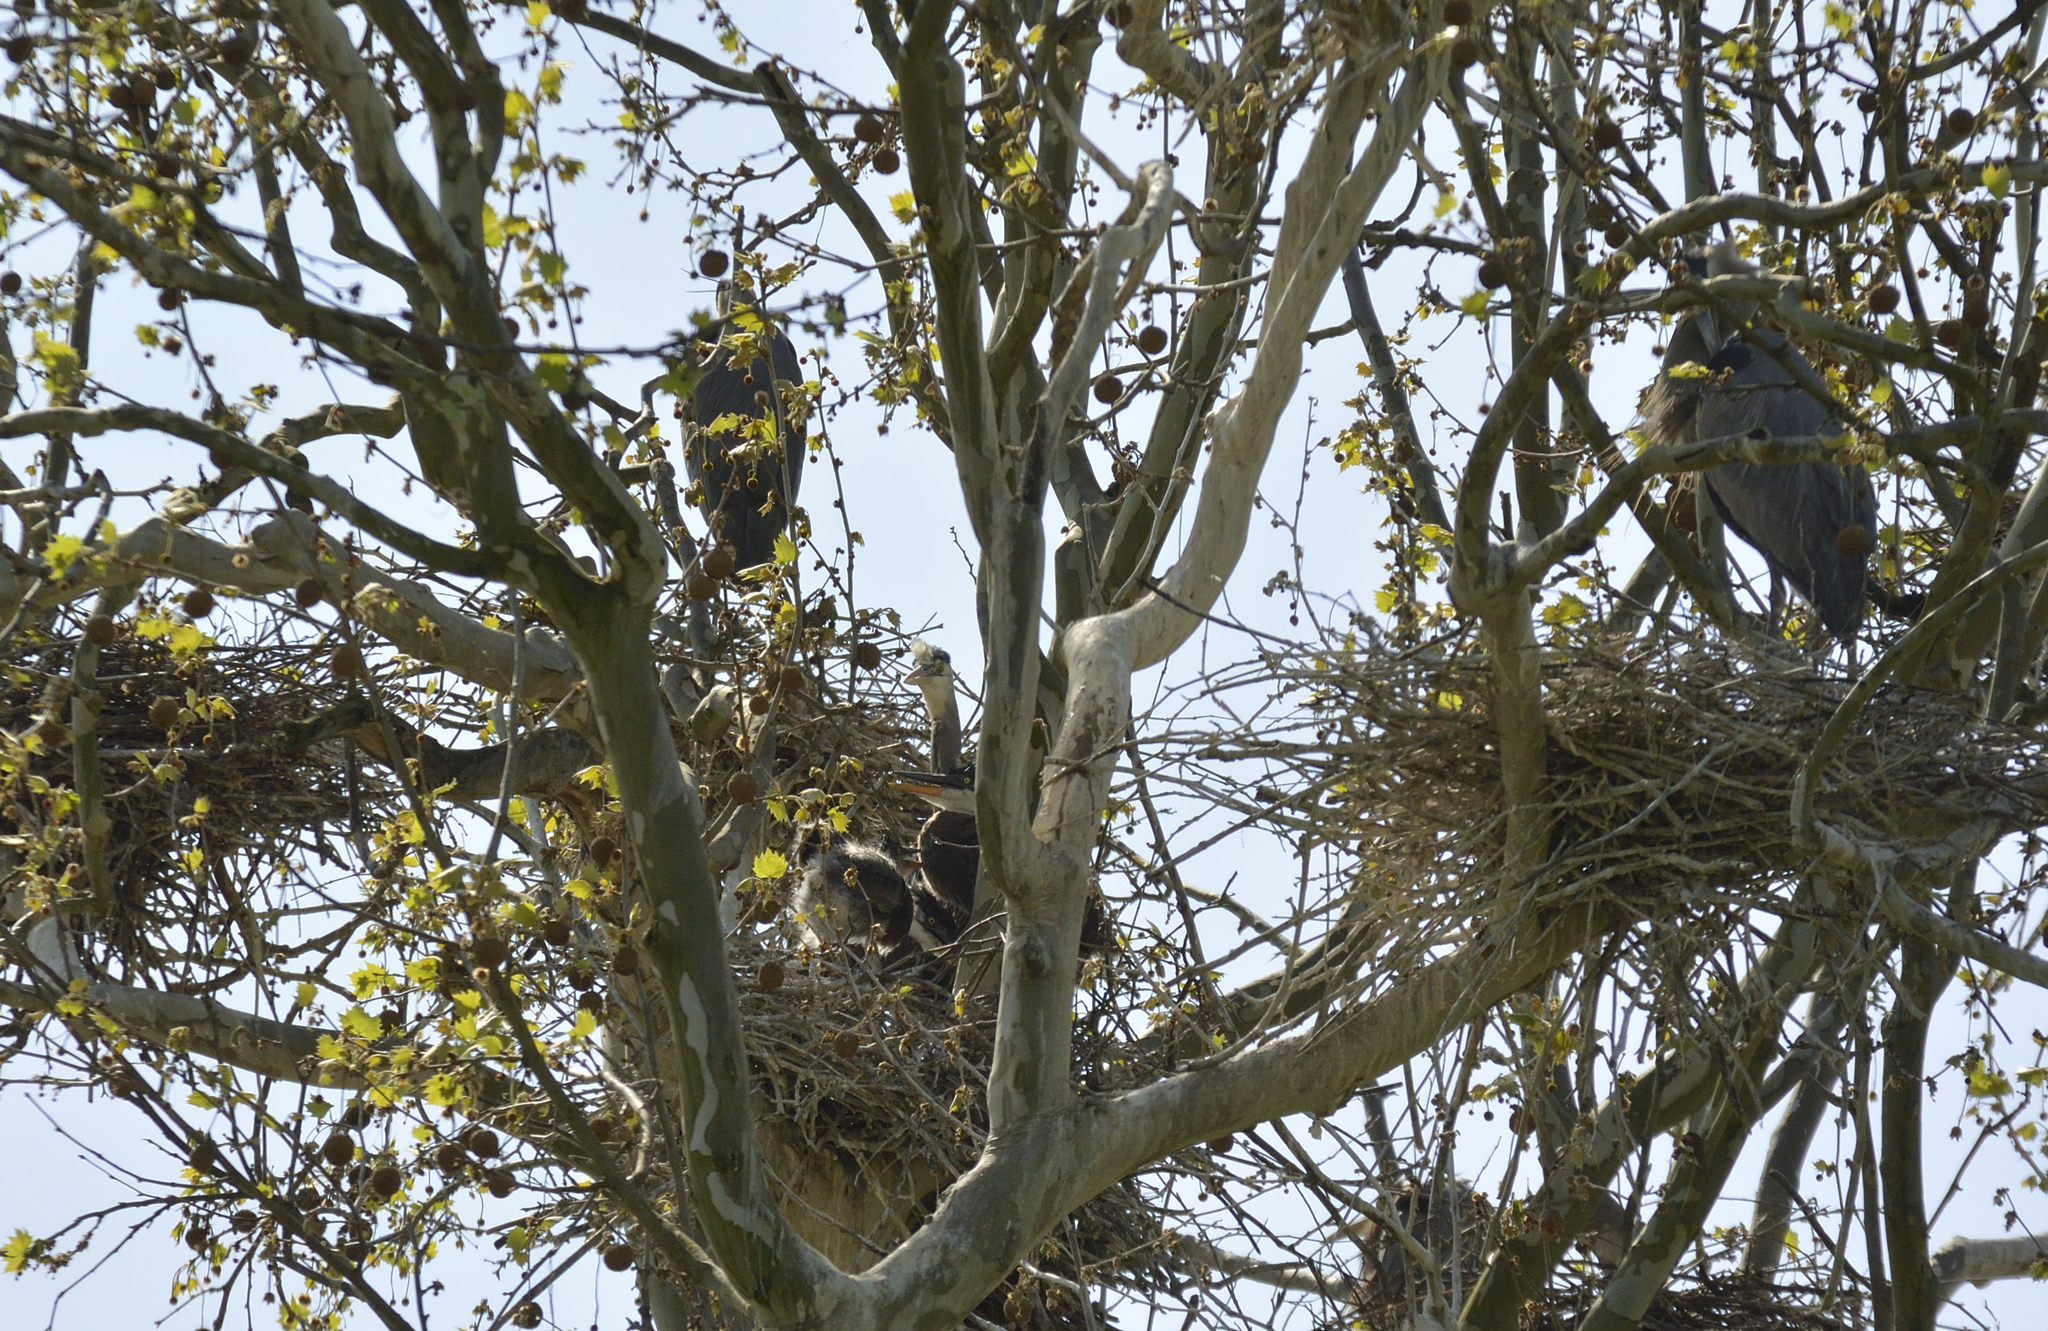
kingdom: Animalia
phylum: Chordata
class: Aves
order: Pelecaniformes
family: Ardeidae
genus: Ardea
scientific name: Ardea herodias
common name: Great blue heron
